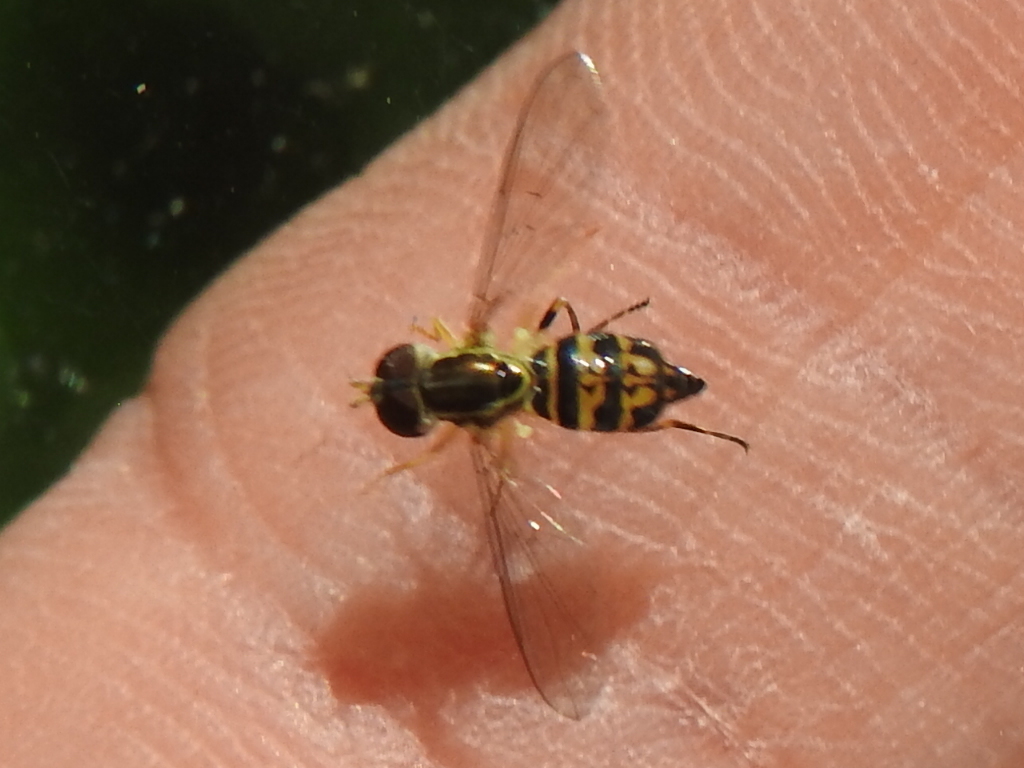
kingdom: Animalia
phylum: Arthropoda
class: Insecta
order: Diptera
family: Syrphidae
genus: Toxomerus
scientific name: Toxomerus geminatus
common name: Eastern calligrapher
